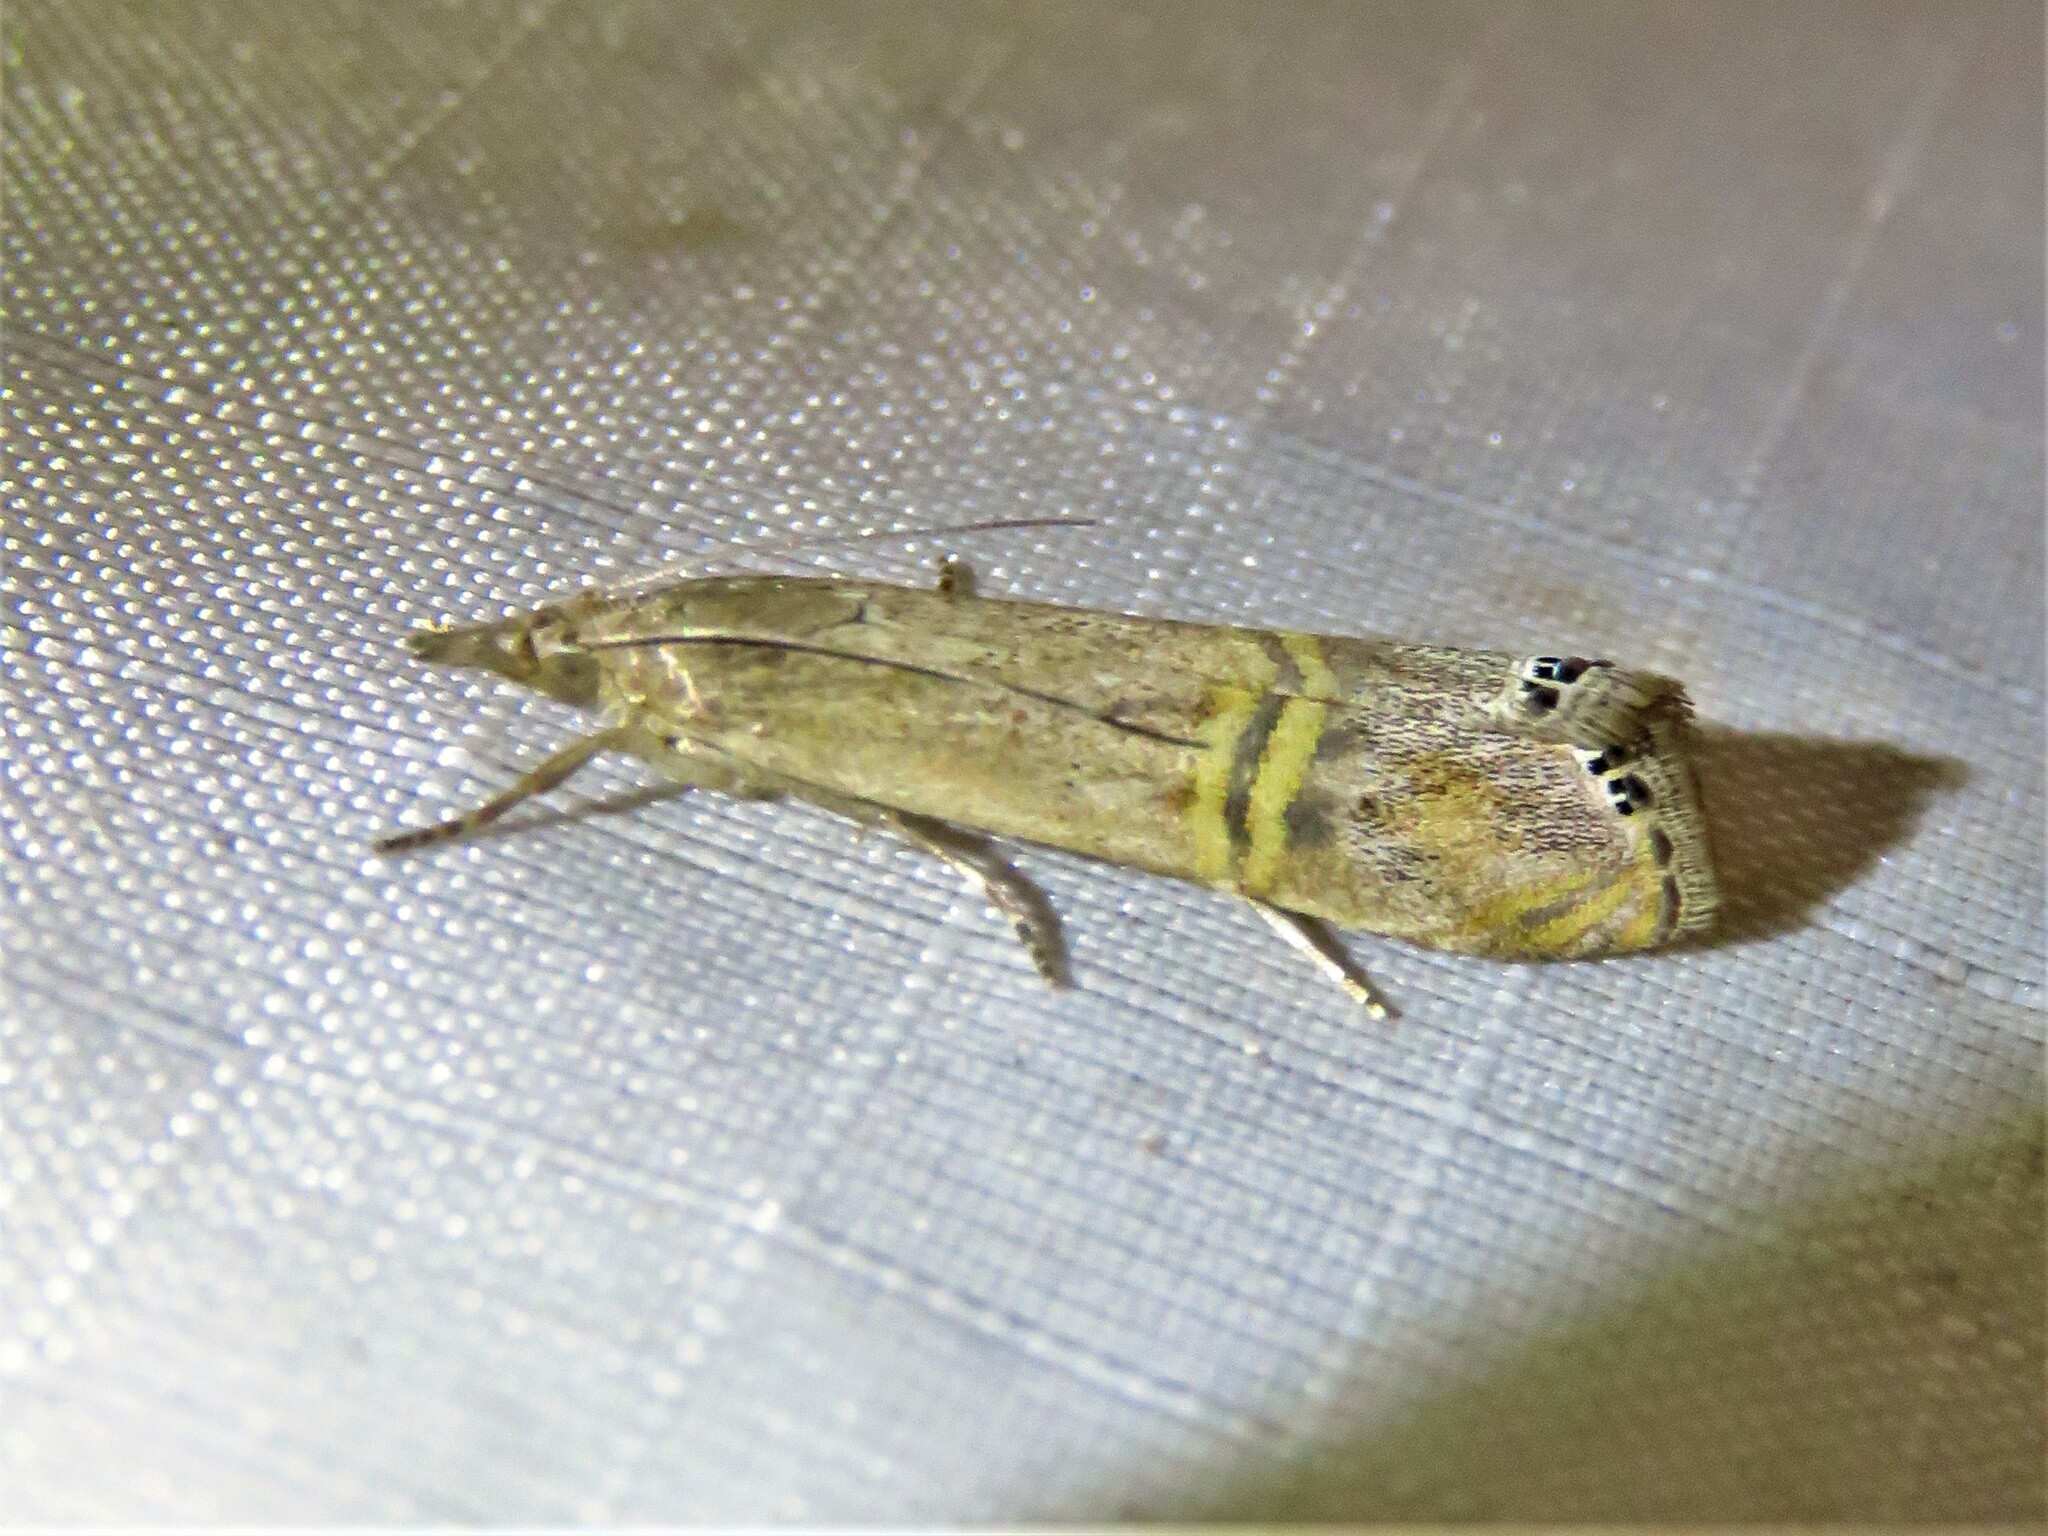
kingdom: Animalia
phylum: Arthropoda
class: Insecta
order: Lepidoptera
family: Crambidae
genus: Euchromius
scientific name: Euchromius ocellea
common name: Necklace veneer moth
